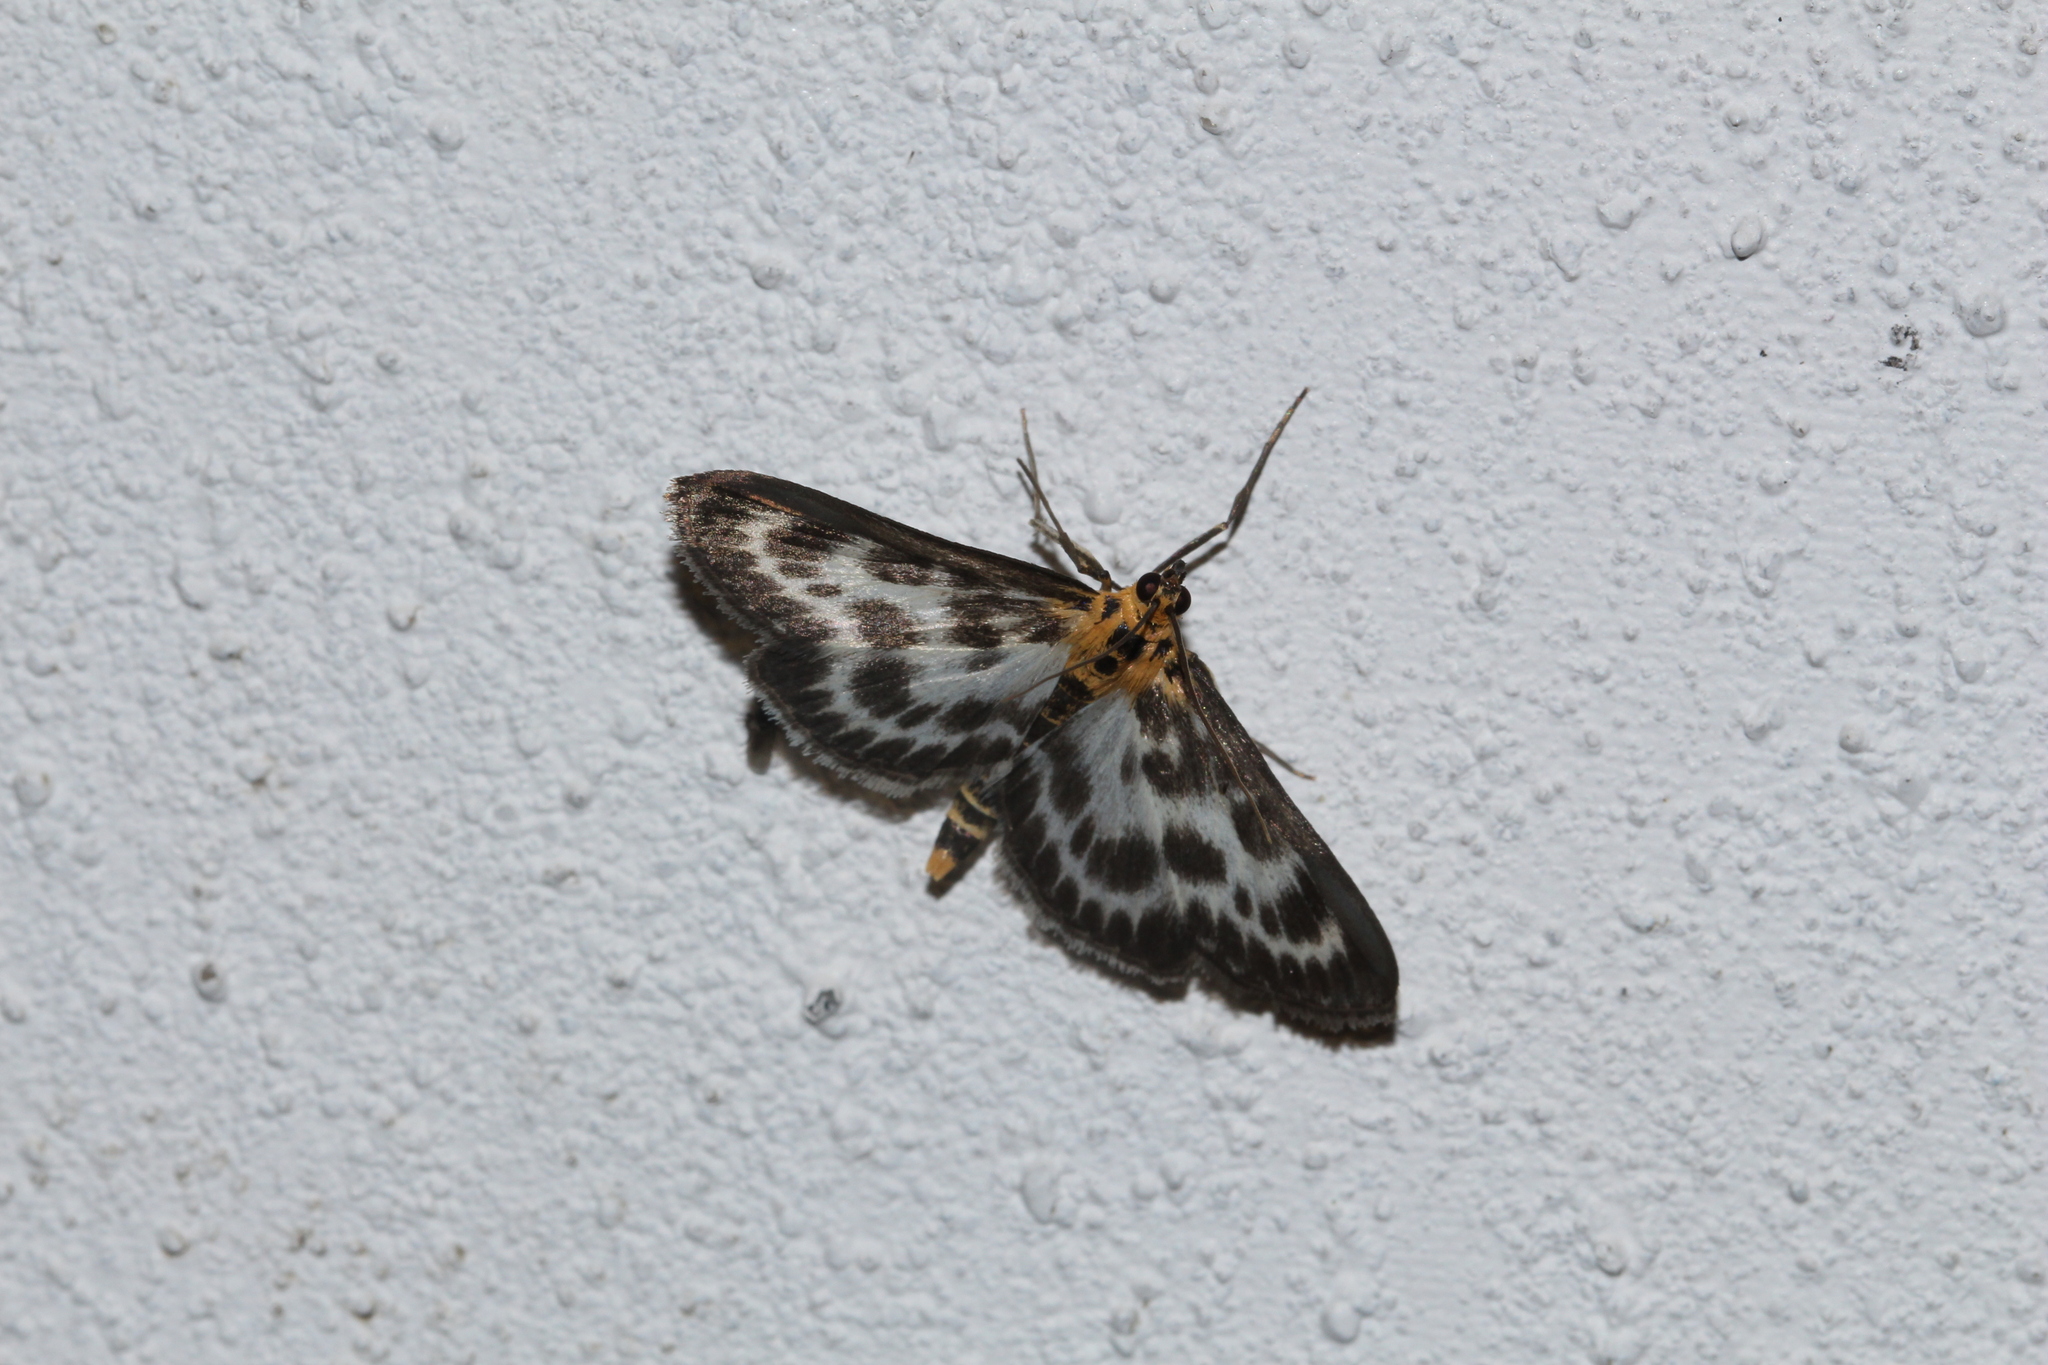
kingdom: Animalia
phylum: Arthropoda
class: Insecta
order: Lepidoptera
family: Crambidae
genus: Anania
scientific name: Anania hortulata
